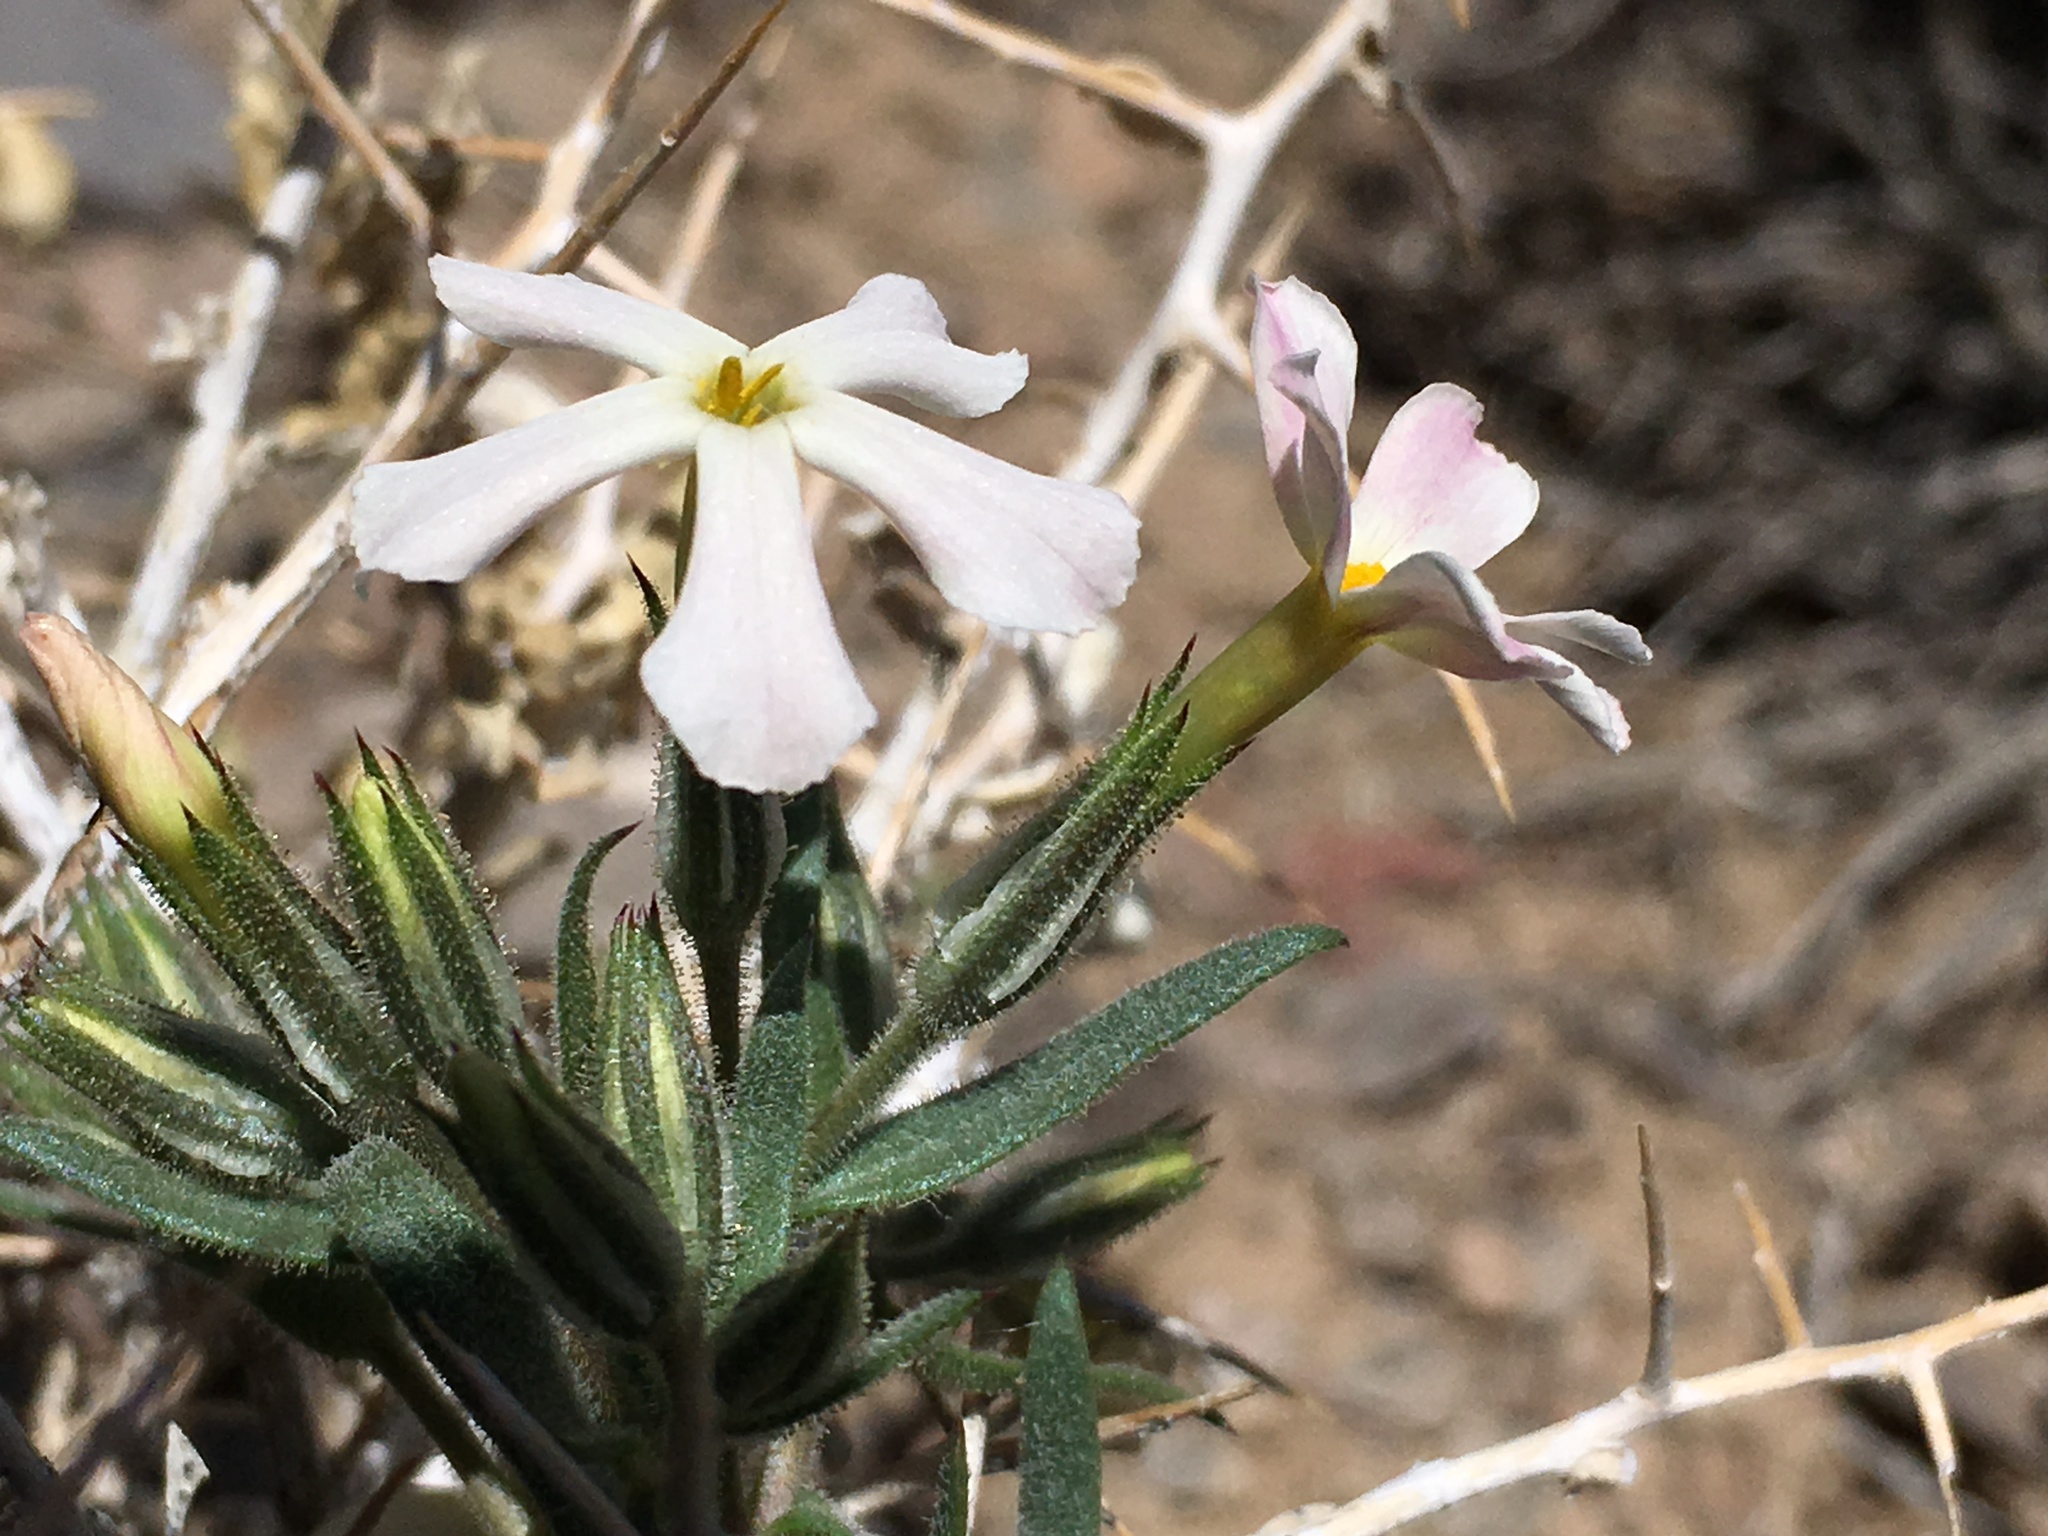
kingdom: Plantae
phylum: Tracheophyta
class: Magnoliopsida
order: Ericales
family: Polemoniaceae
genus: Phlox
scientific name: Phlox longifolia
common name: Longleaf phlox
